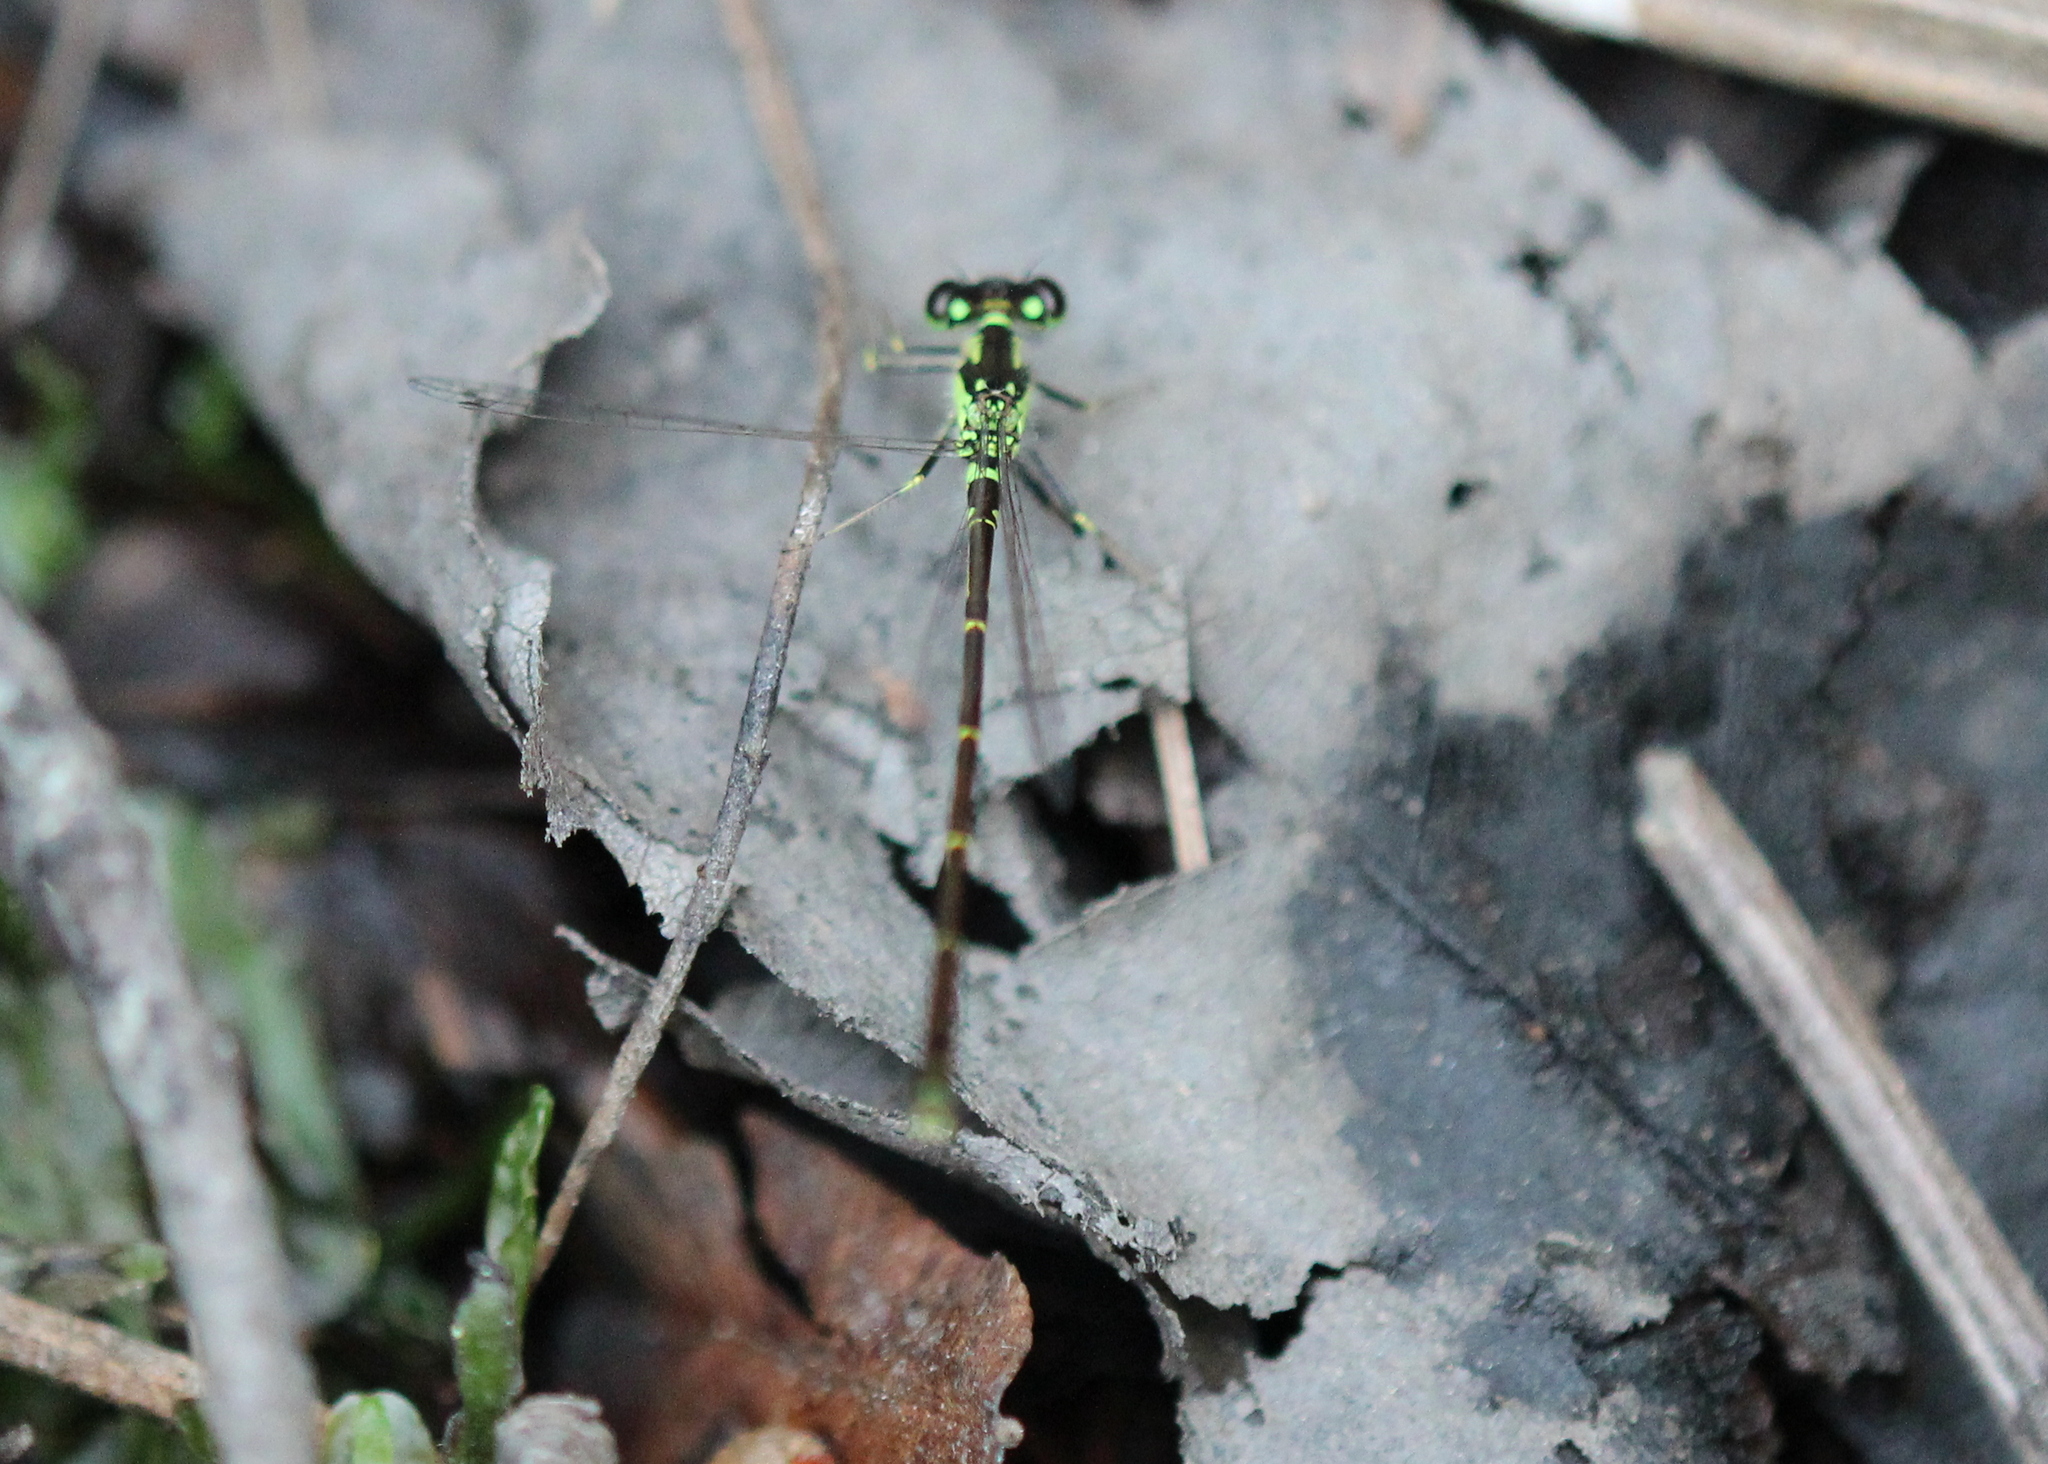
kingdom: Animalia
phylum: Arthropoda
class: Insecta
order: Odonata
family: Coenagrionidae
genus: Ischnura
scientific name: Ischnura posita
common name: Fragile forktail
